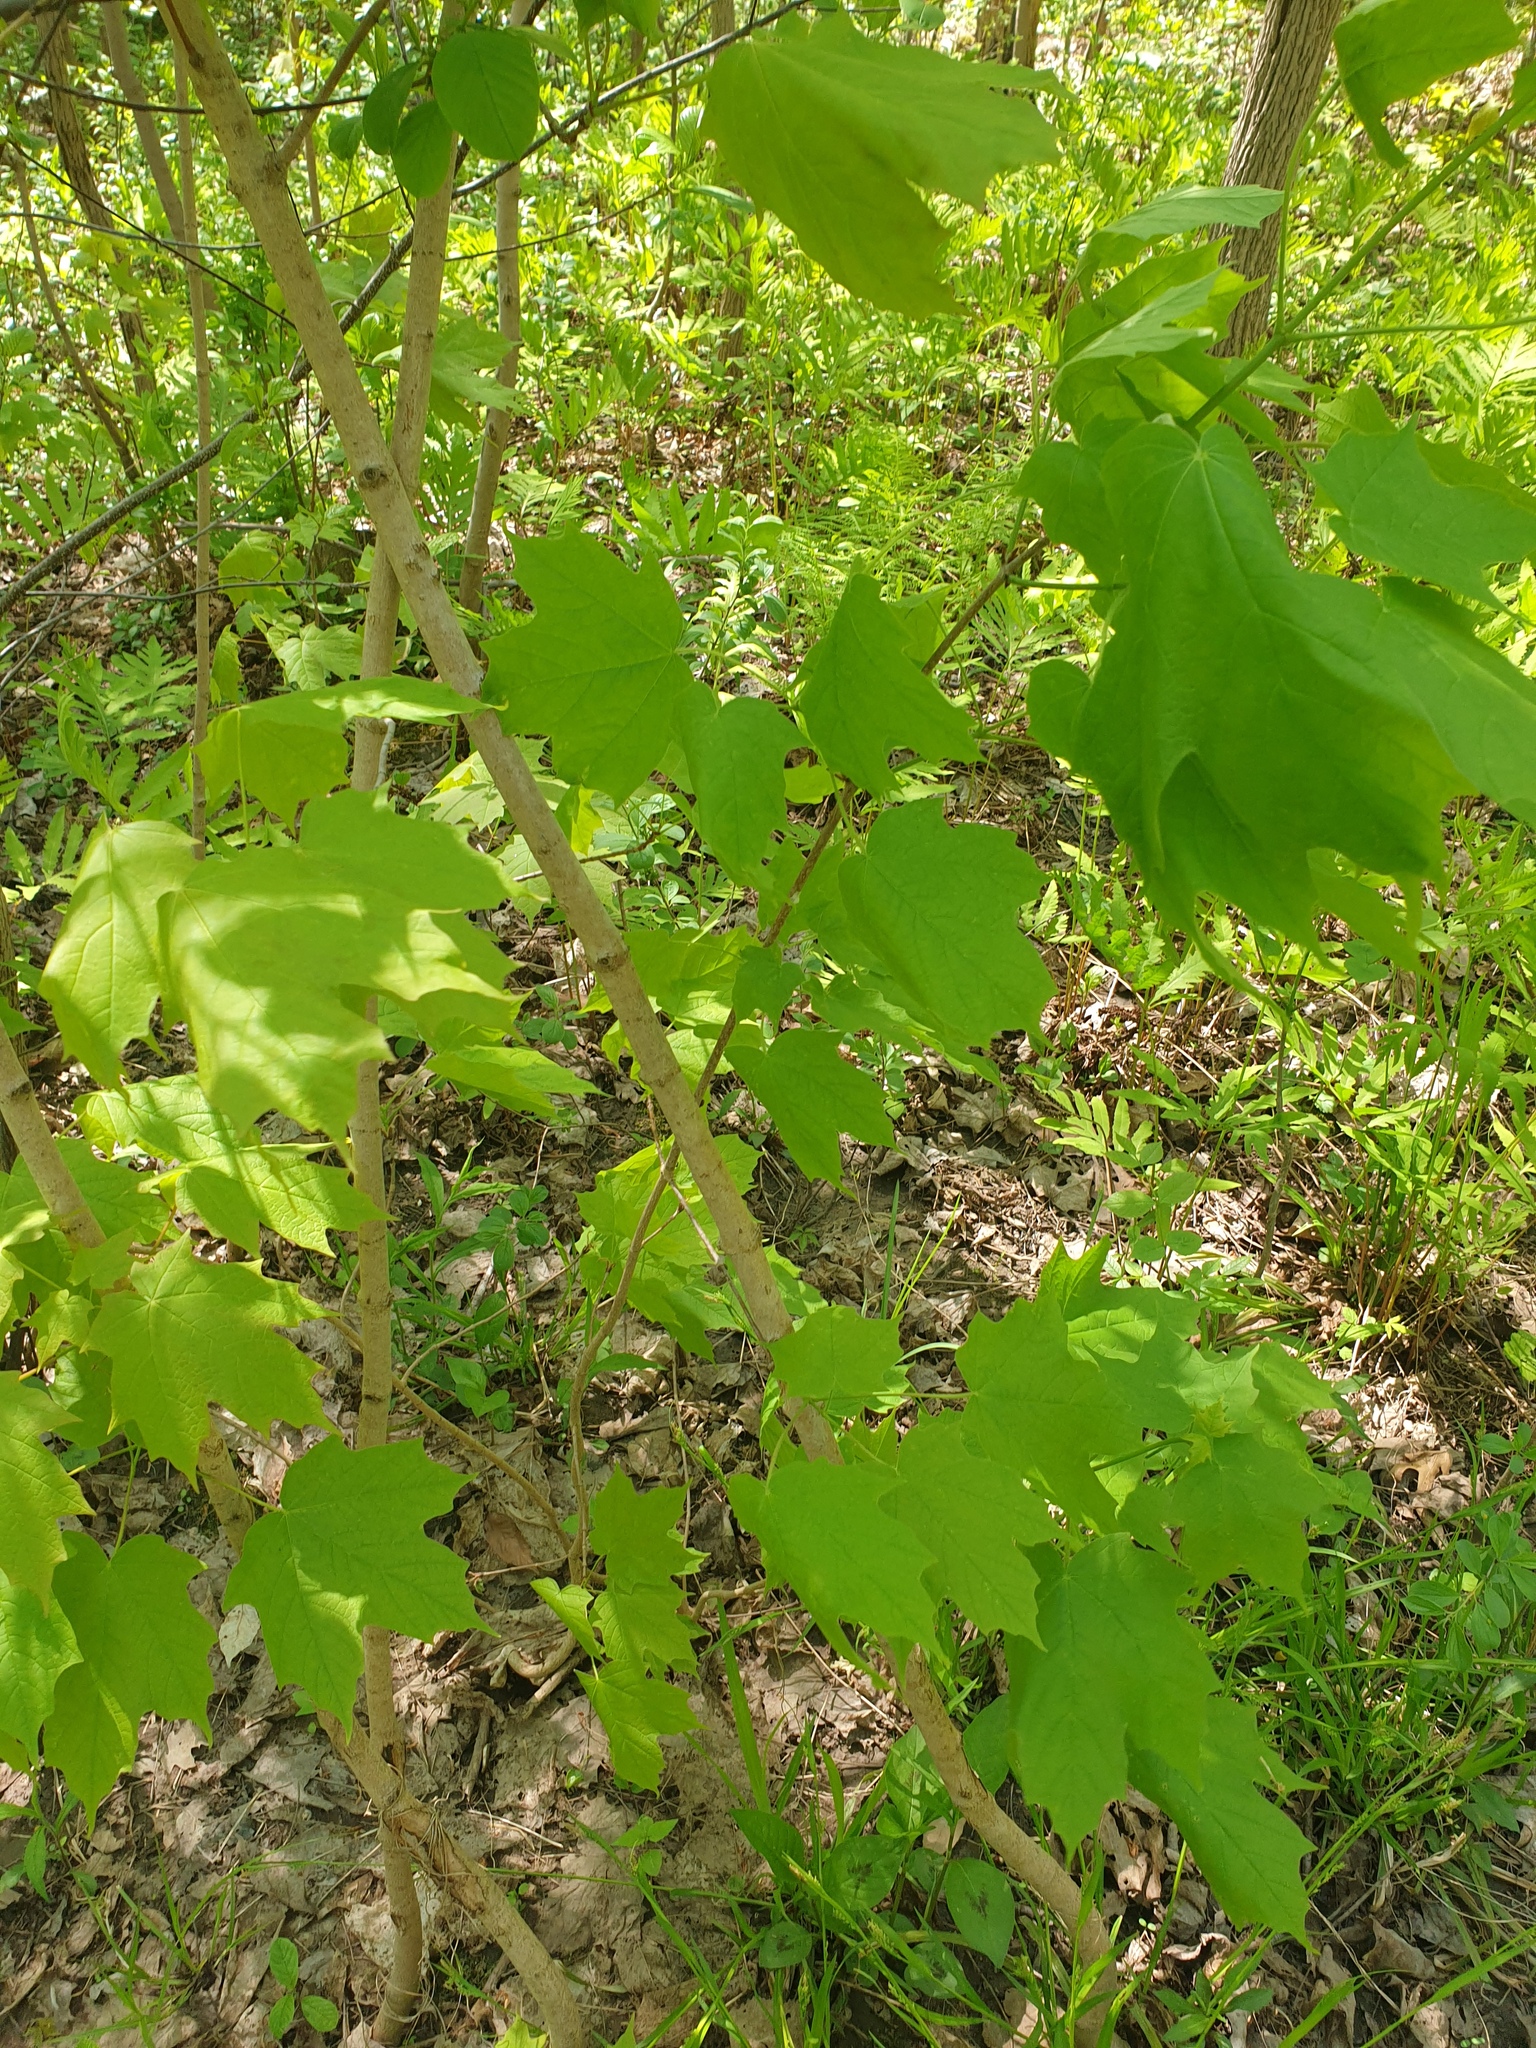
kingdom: Plantae
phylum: Tracheophyta
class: Magnoliopsida
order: Sapindales
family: Sapindaceae
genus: Acer
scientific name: Acer nigrum
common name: Black maple
